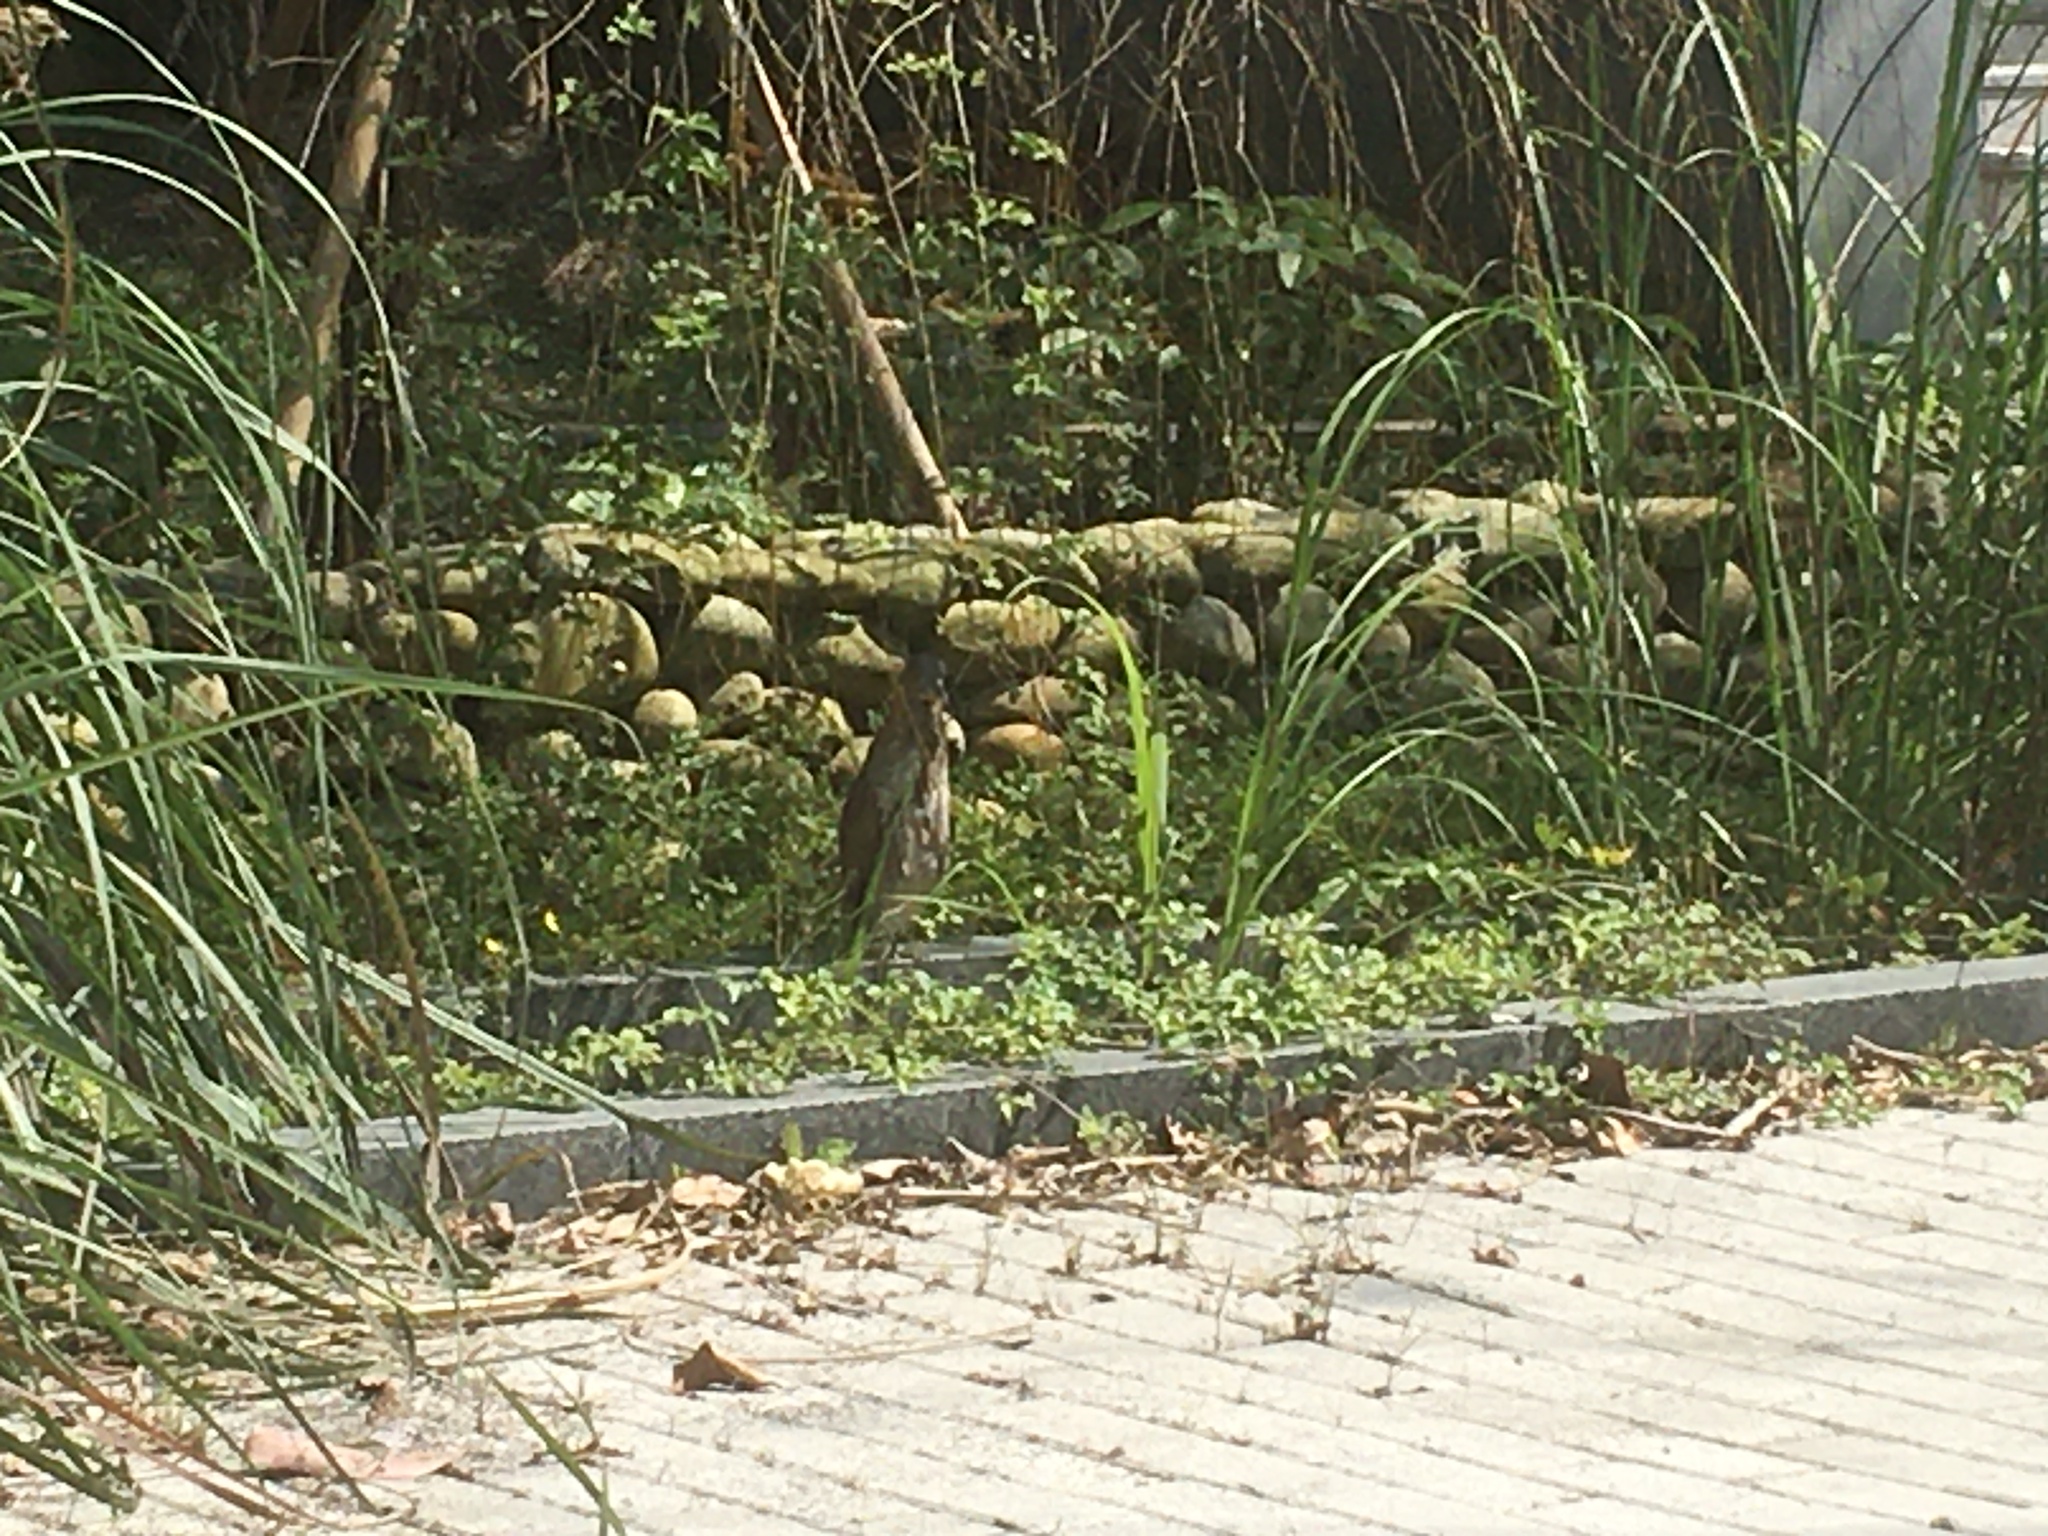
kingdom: Animalia
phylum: Chordata
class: Aves
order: Pelecaniformes
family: Ardeidae
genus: Gorsachius
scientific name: Gorsachius melanolophus
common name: Malayan night heron
